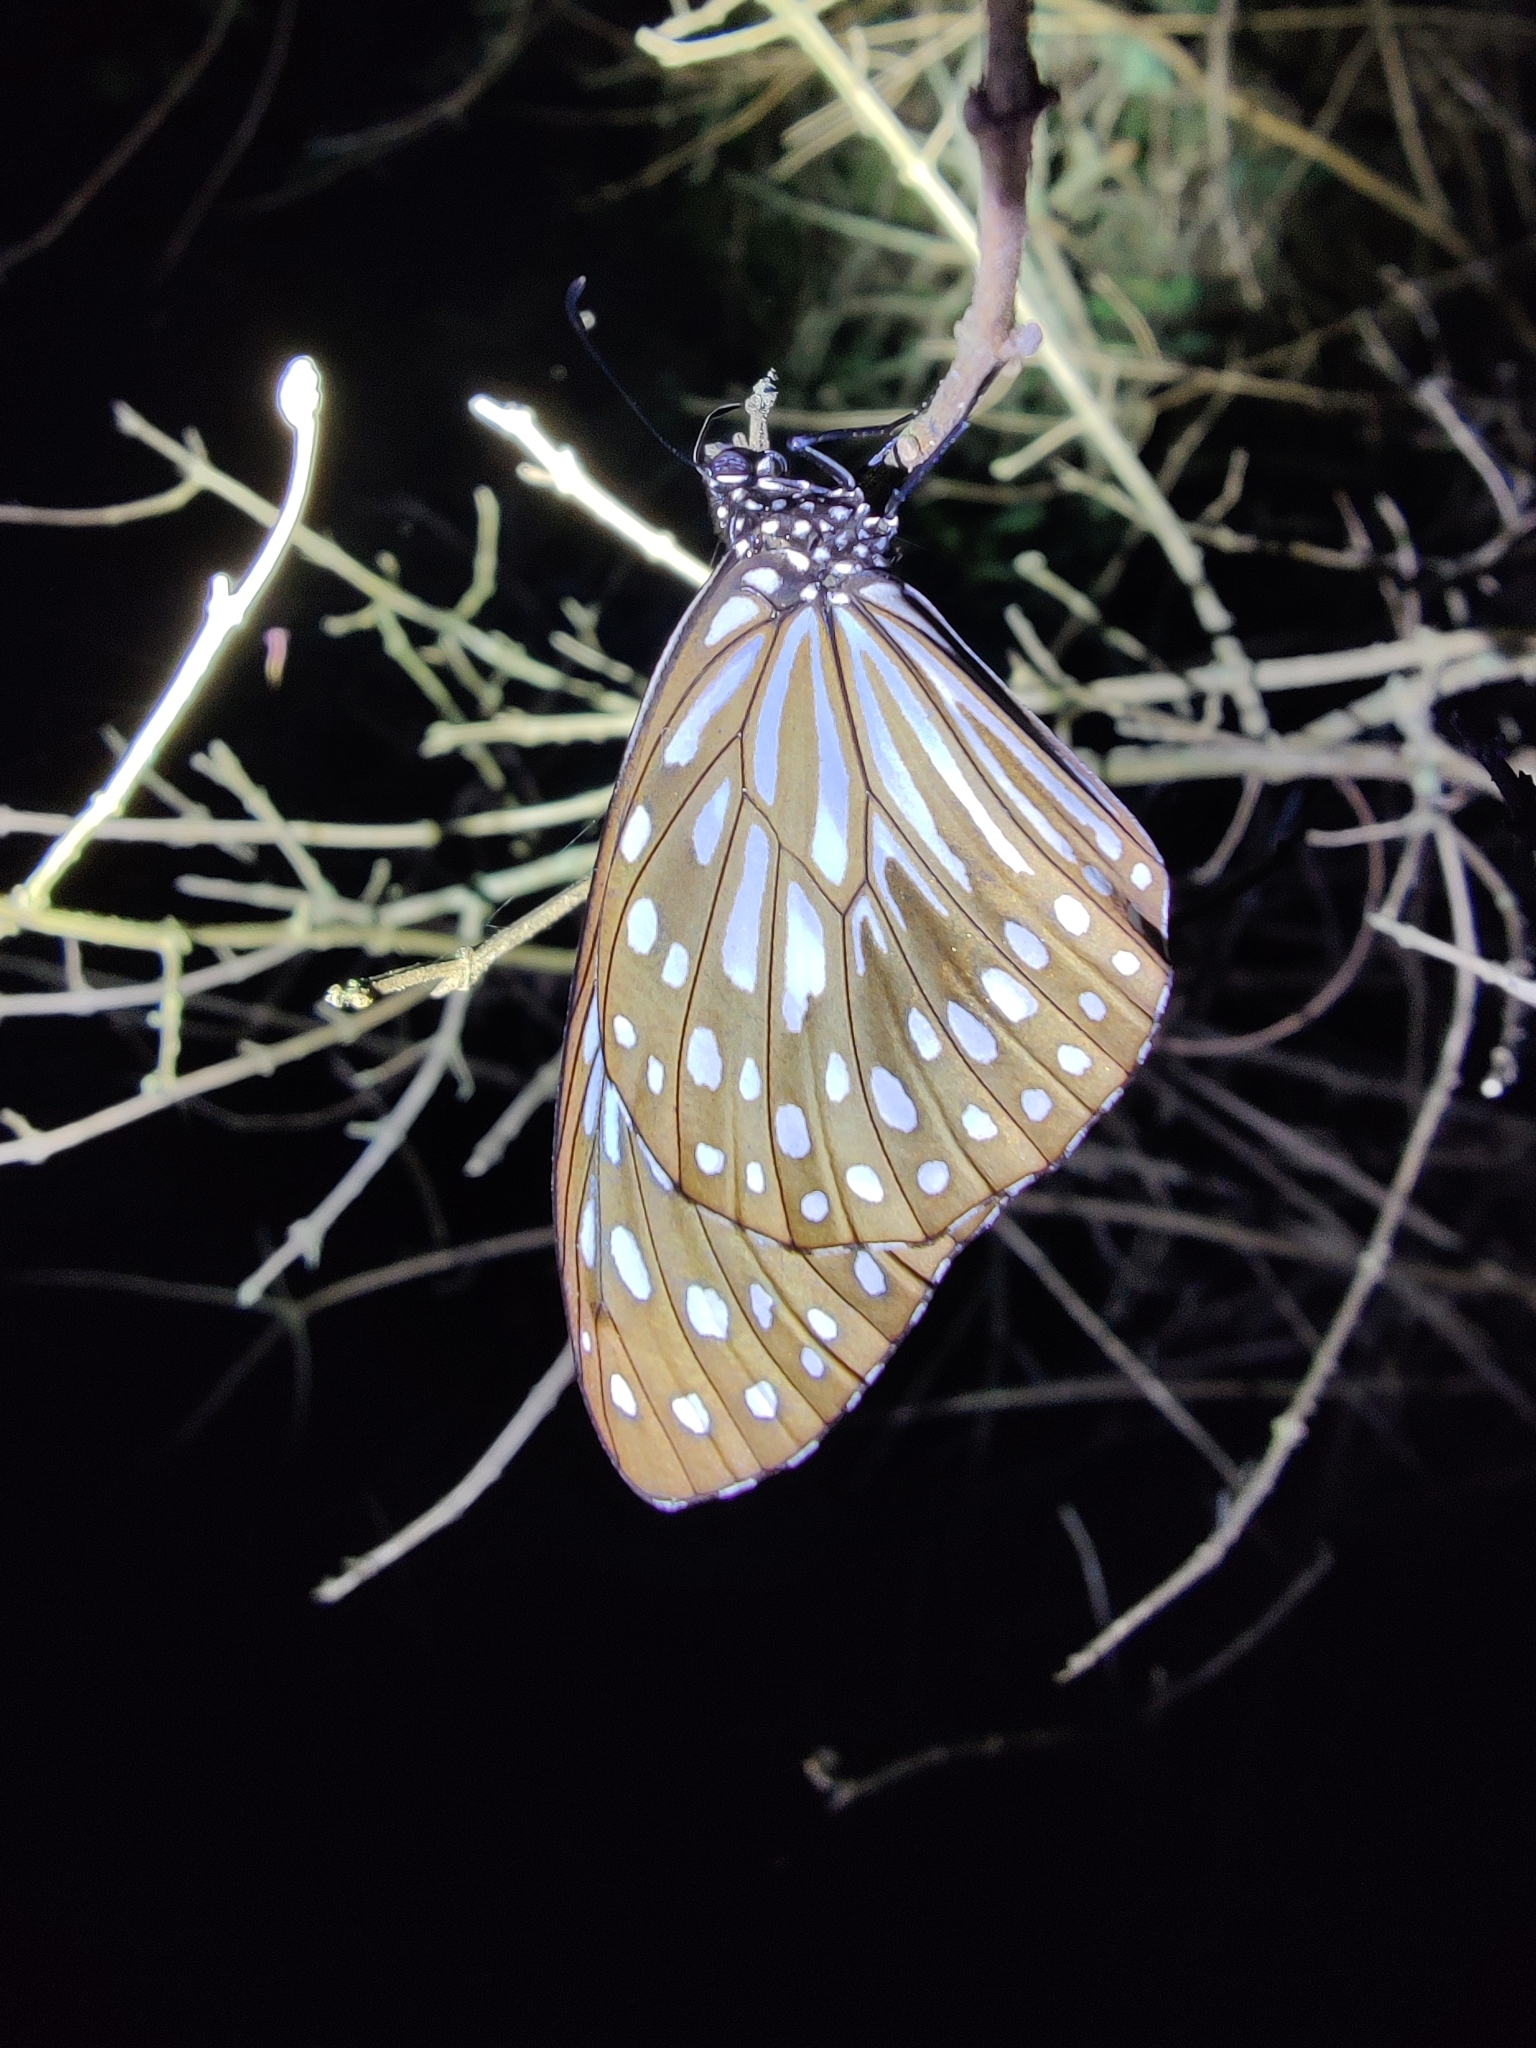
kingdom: Animalia
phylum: Arthropoda
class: Insecta
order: Lepidoptera
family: Nymphalidae
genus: Tirumala
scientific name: Tirumala septentrionis
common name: Dark blue tiger butterfly
